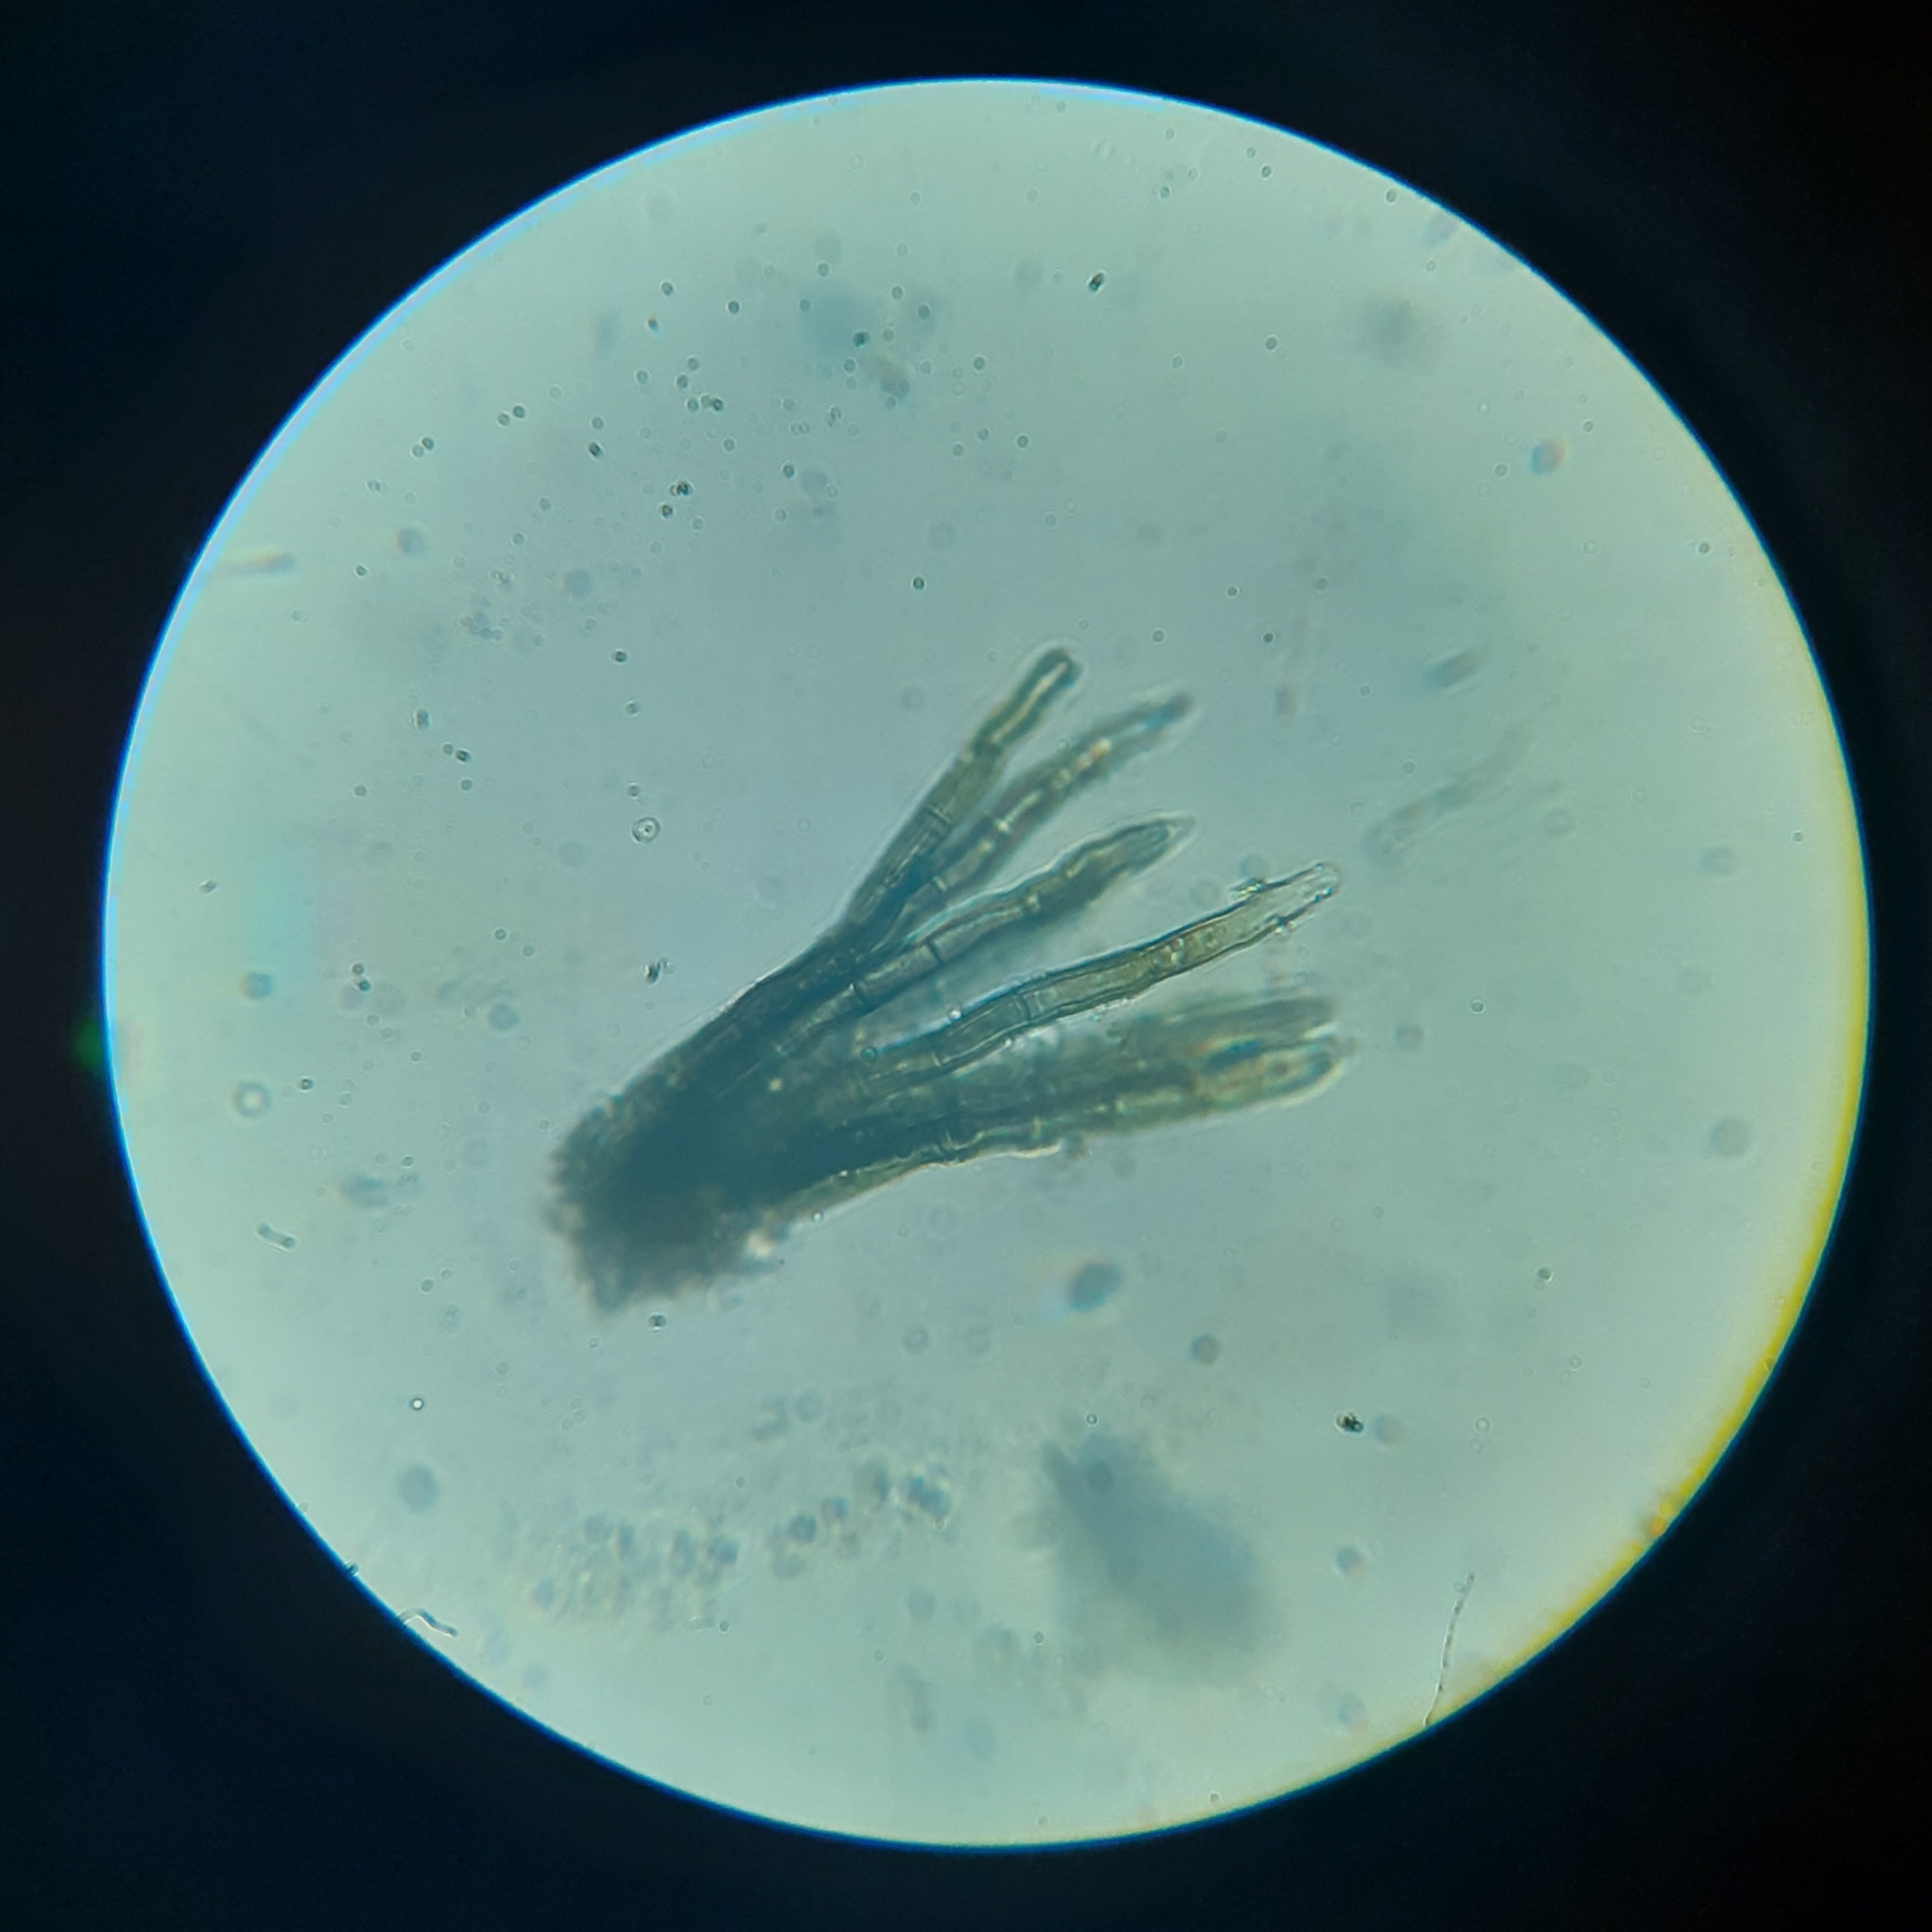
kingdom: Fungi
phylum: Basidiomycota
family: Bartheletiaceae
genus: Bartheletia
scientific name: Bartheletia paradoxa
